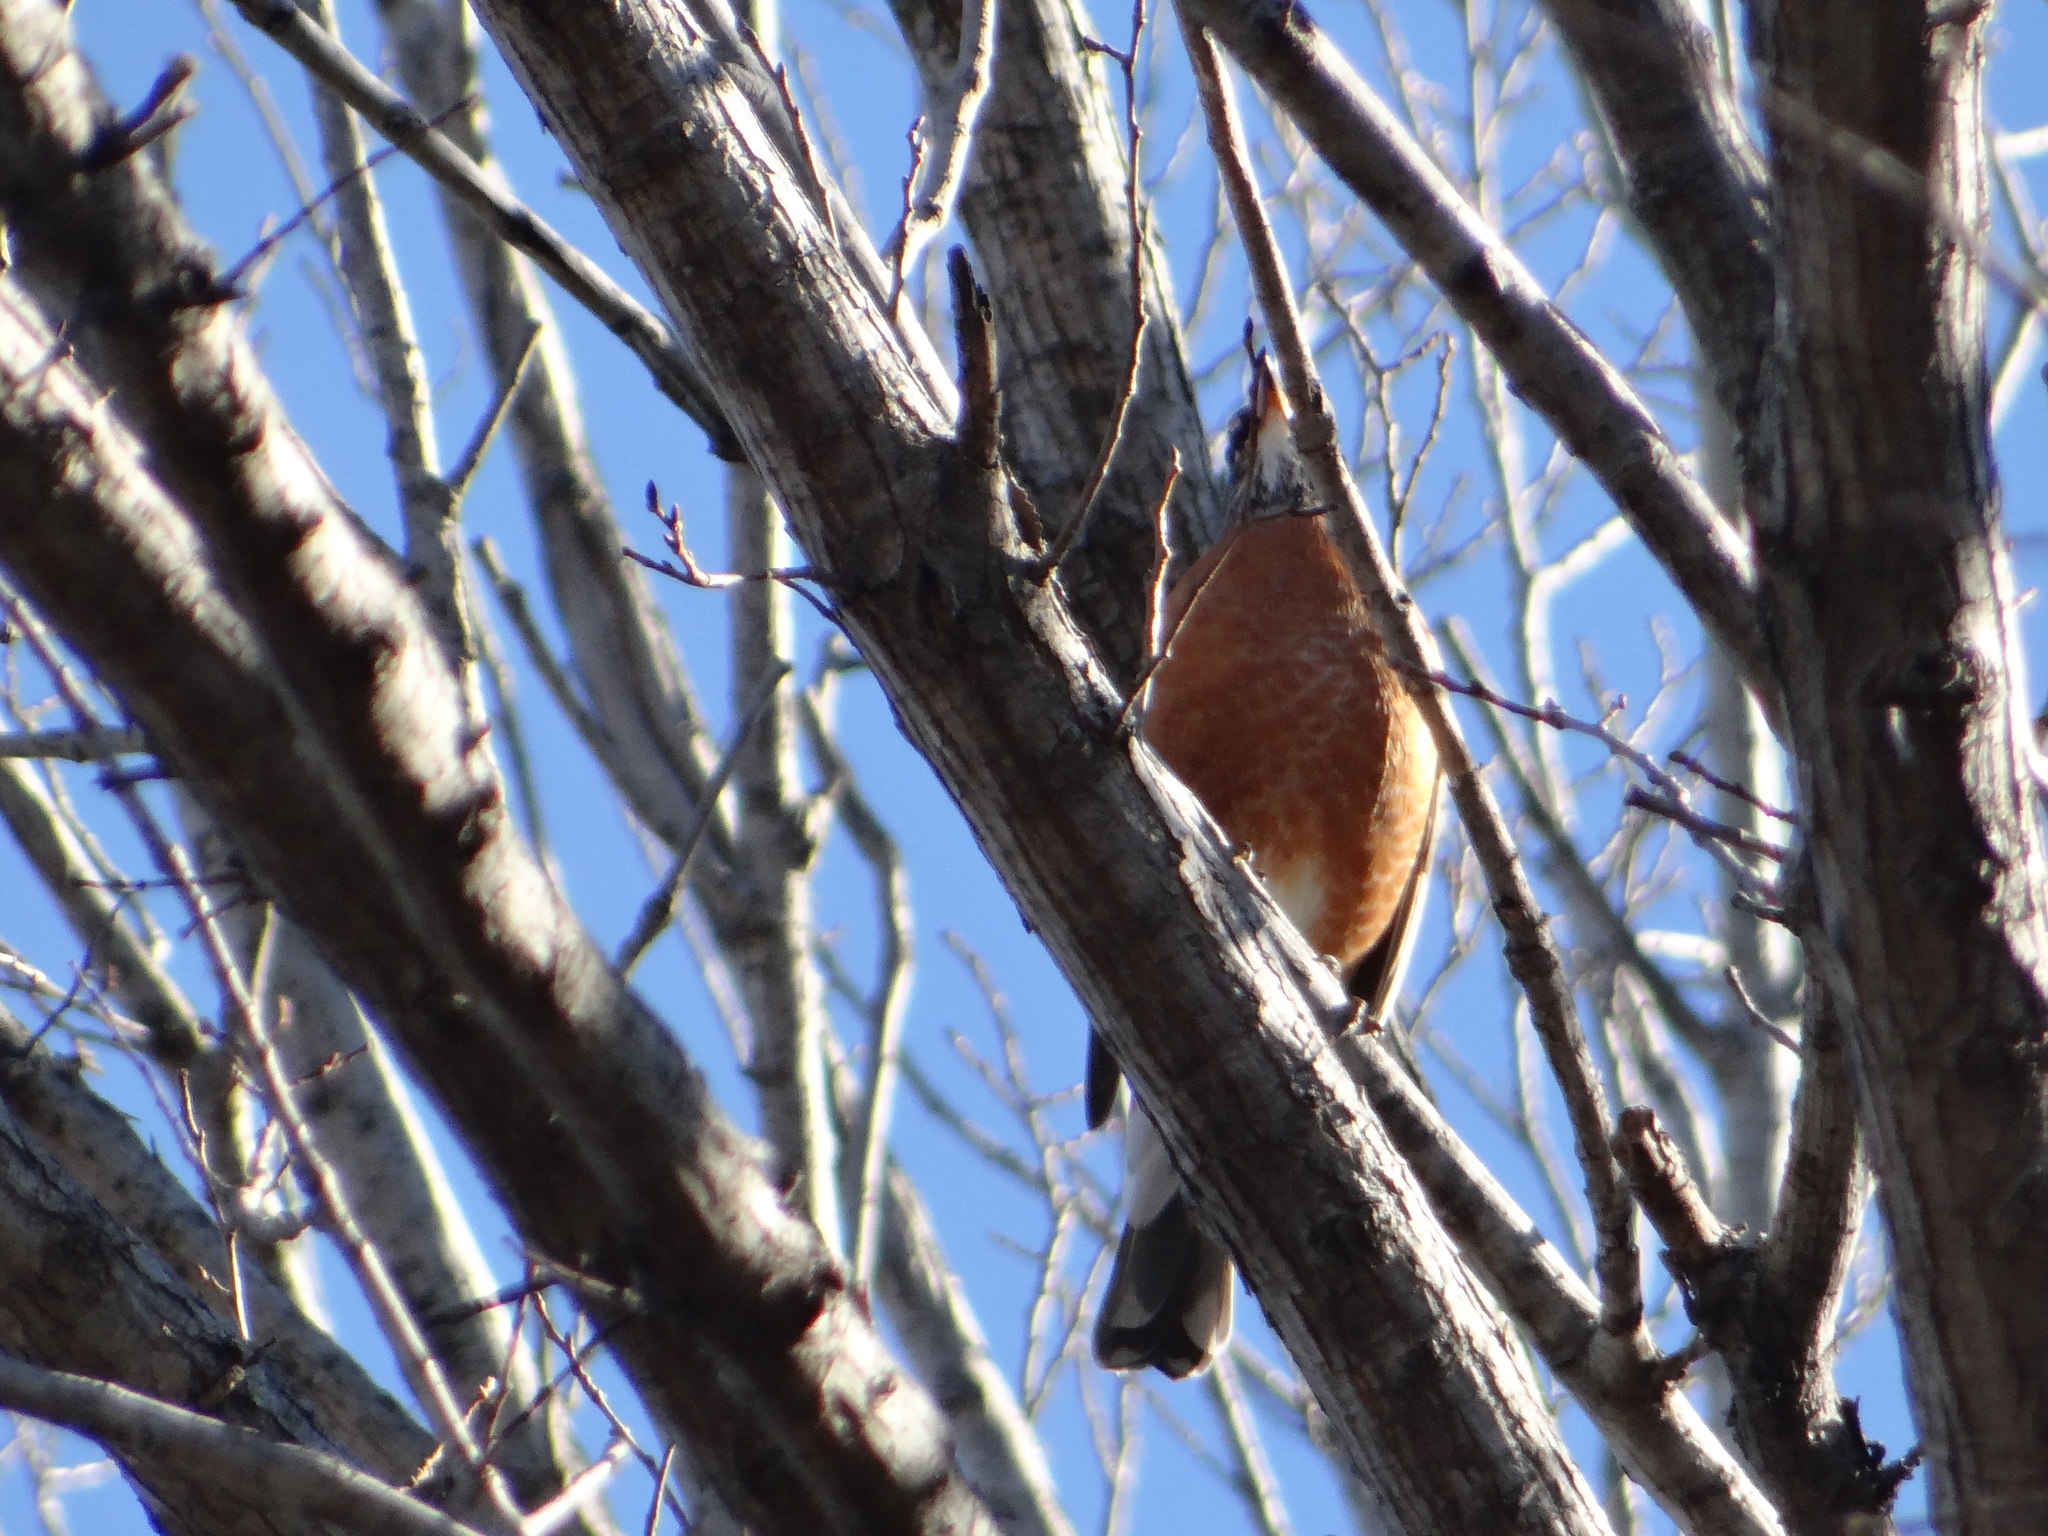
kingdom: Animalia
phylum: Chordata
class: Aves
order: Passeriformes
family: Turdidae
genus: Turdus
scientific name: Turdus migratorius
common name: American robin
